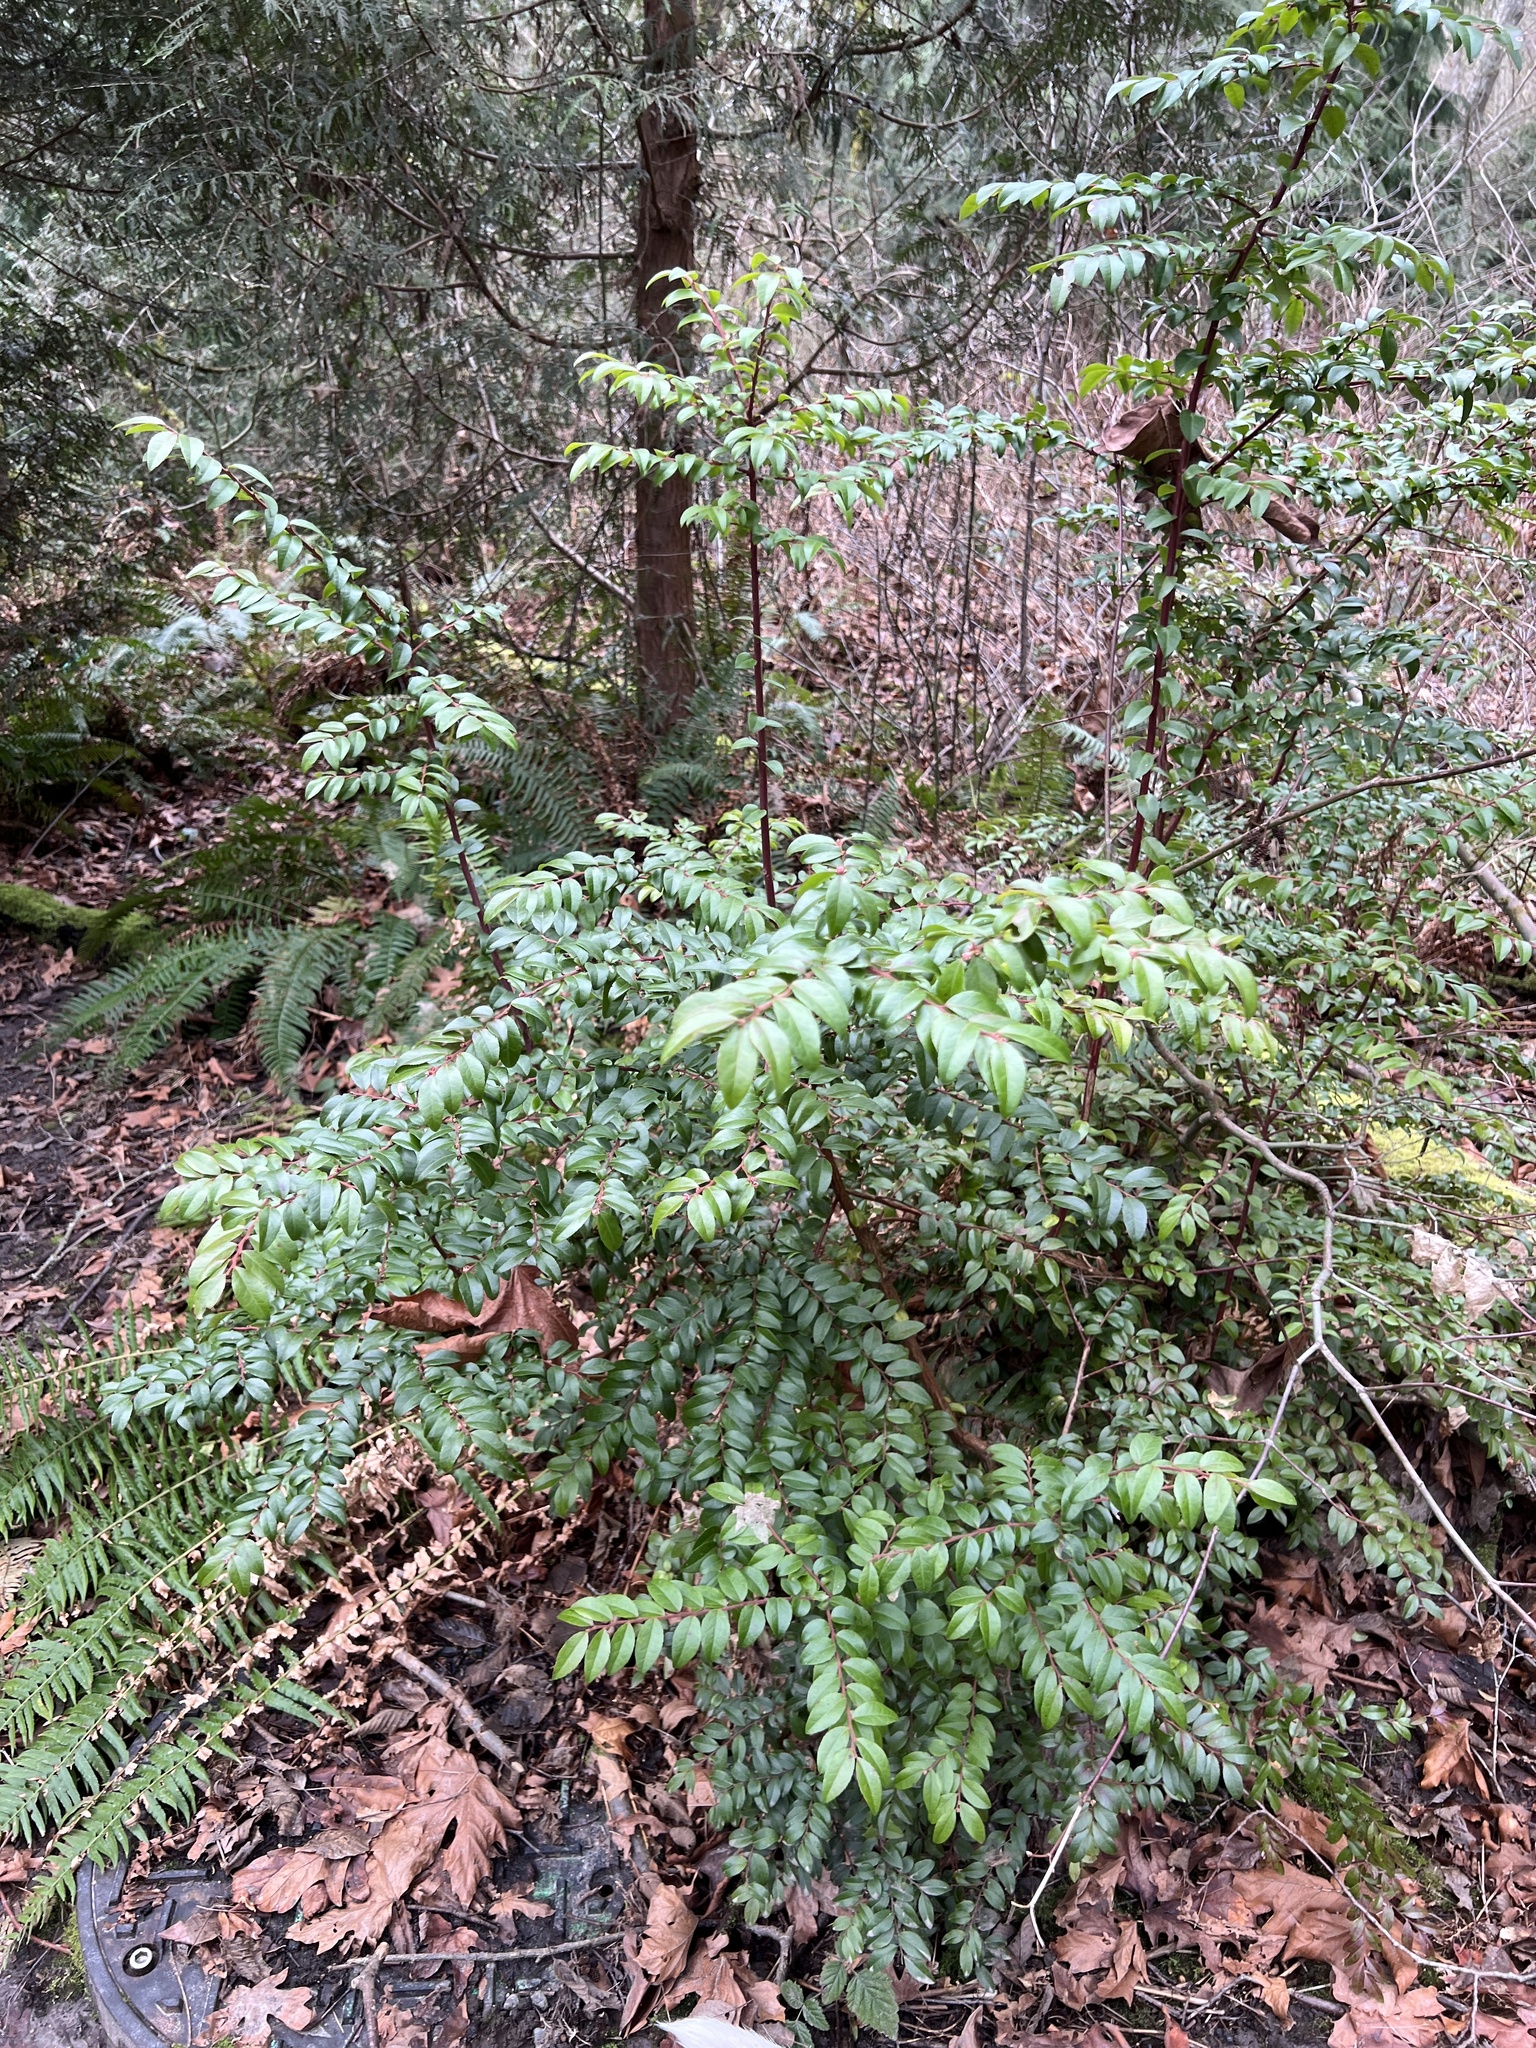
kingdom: Plantae
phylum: Tracheophyta
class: Magnoliopsida
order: Ericales
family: Ericaceae
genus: Vaccinium
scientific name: Vaccinium ovatum
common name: California-huckleberry
